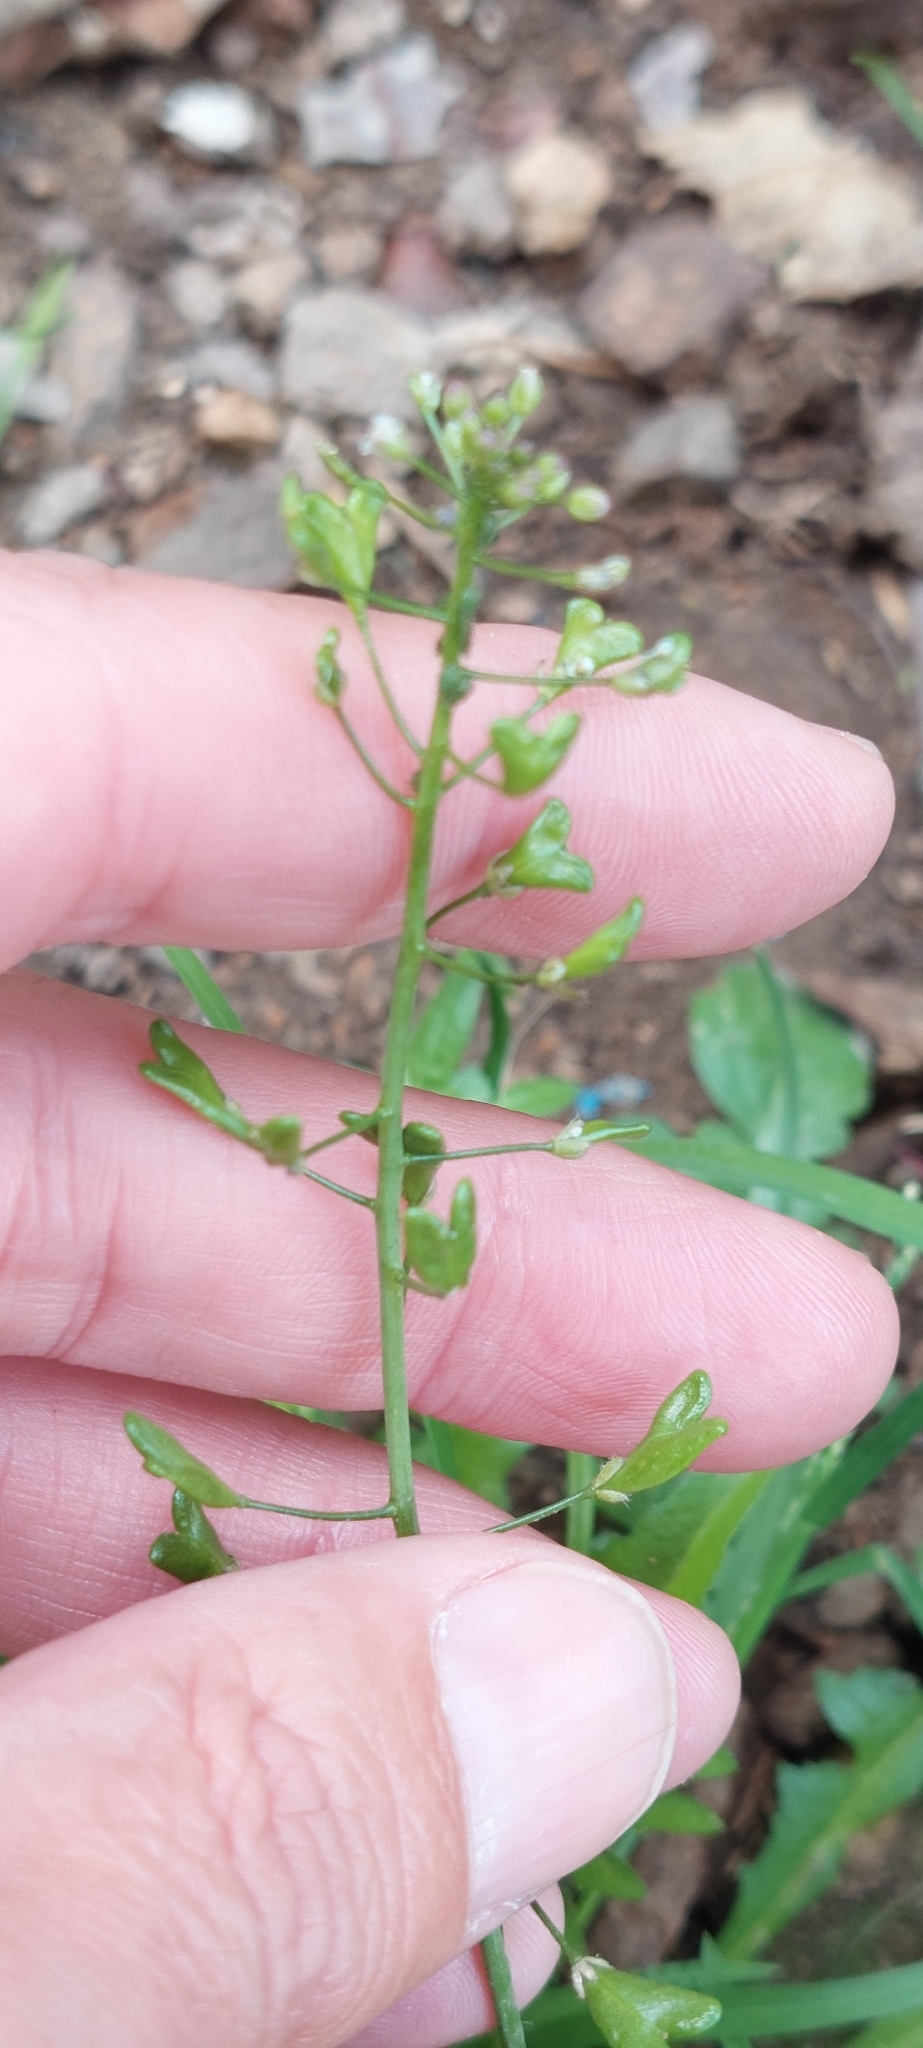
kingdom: Plantae
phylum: Tracheophyta
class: Magnoliopsida
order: Brassicales
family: Brassicaceae
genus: Capsella
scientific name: Capsella bursa-pastoris
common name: Shepherd's purse
